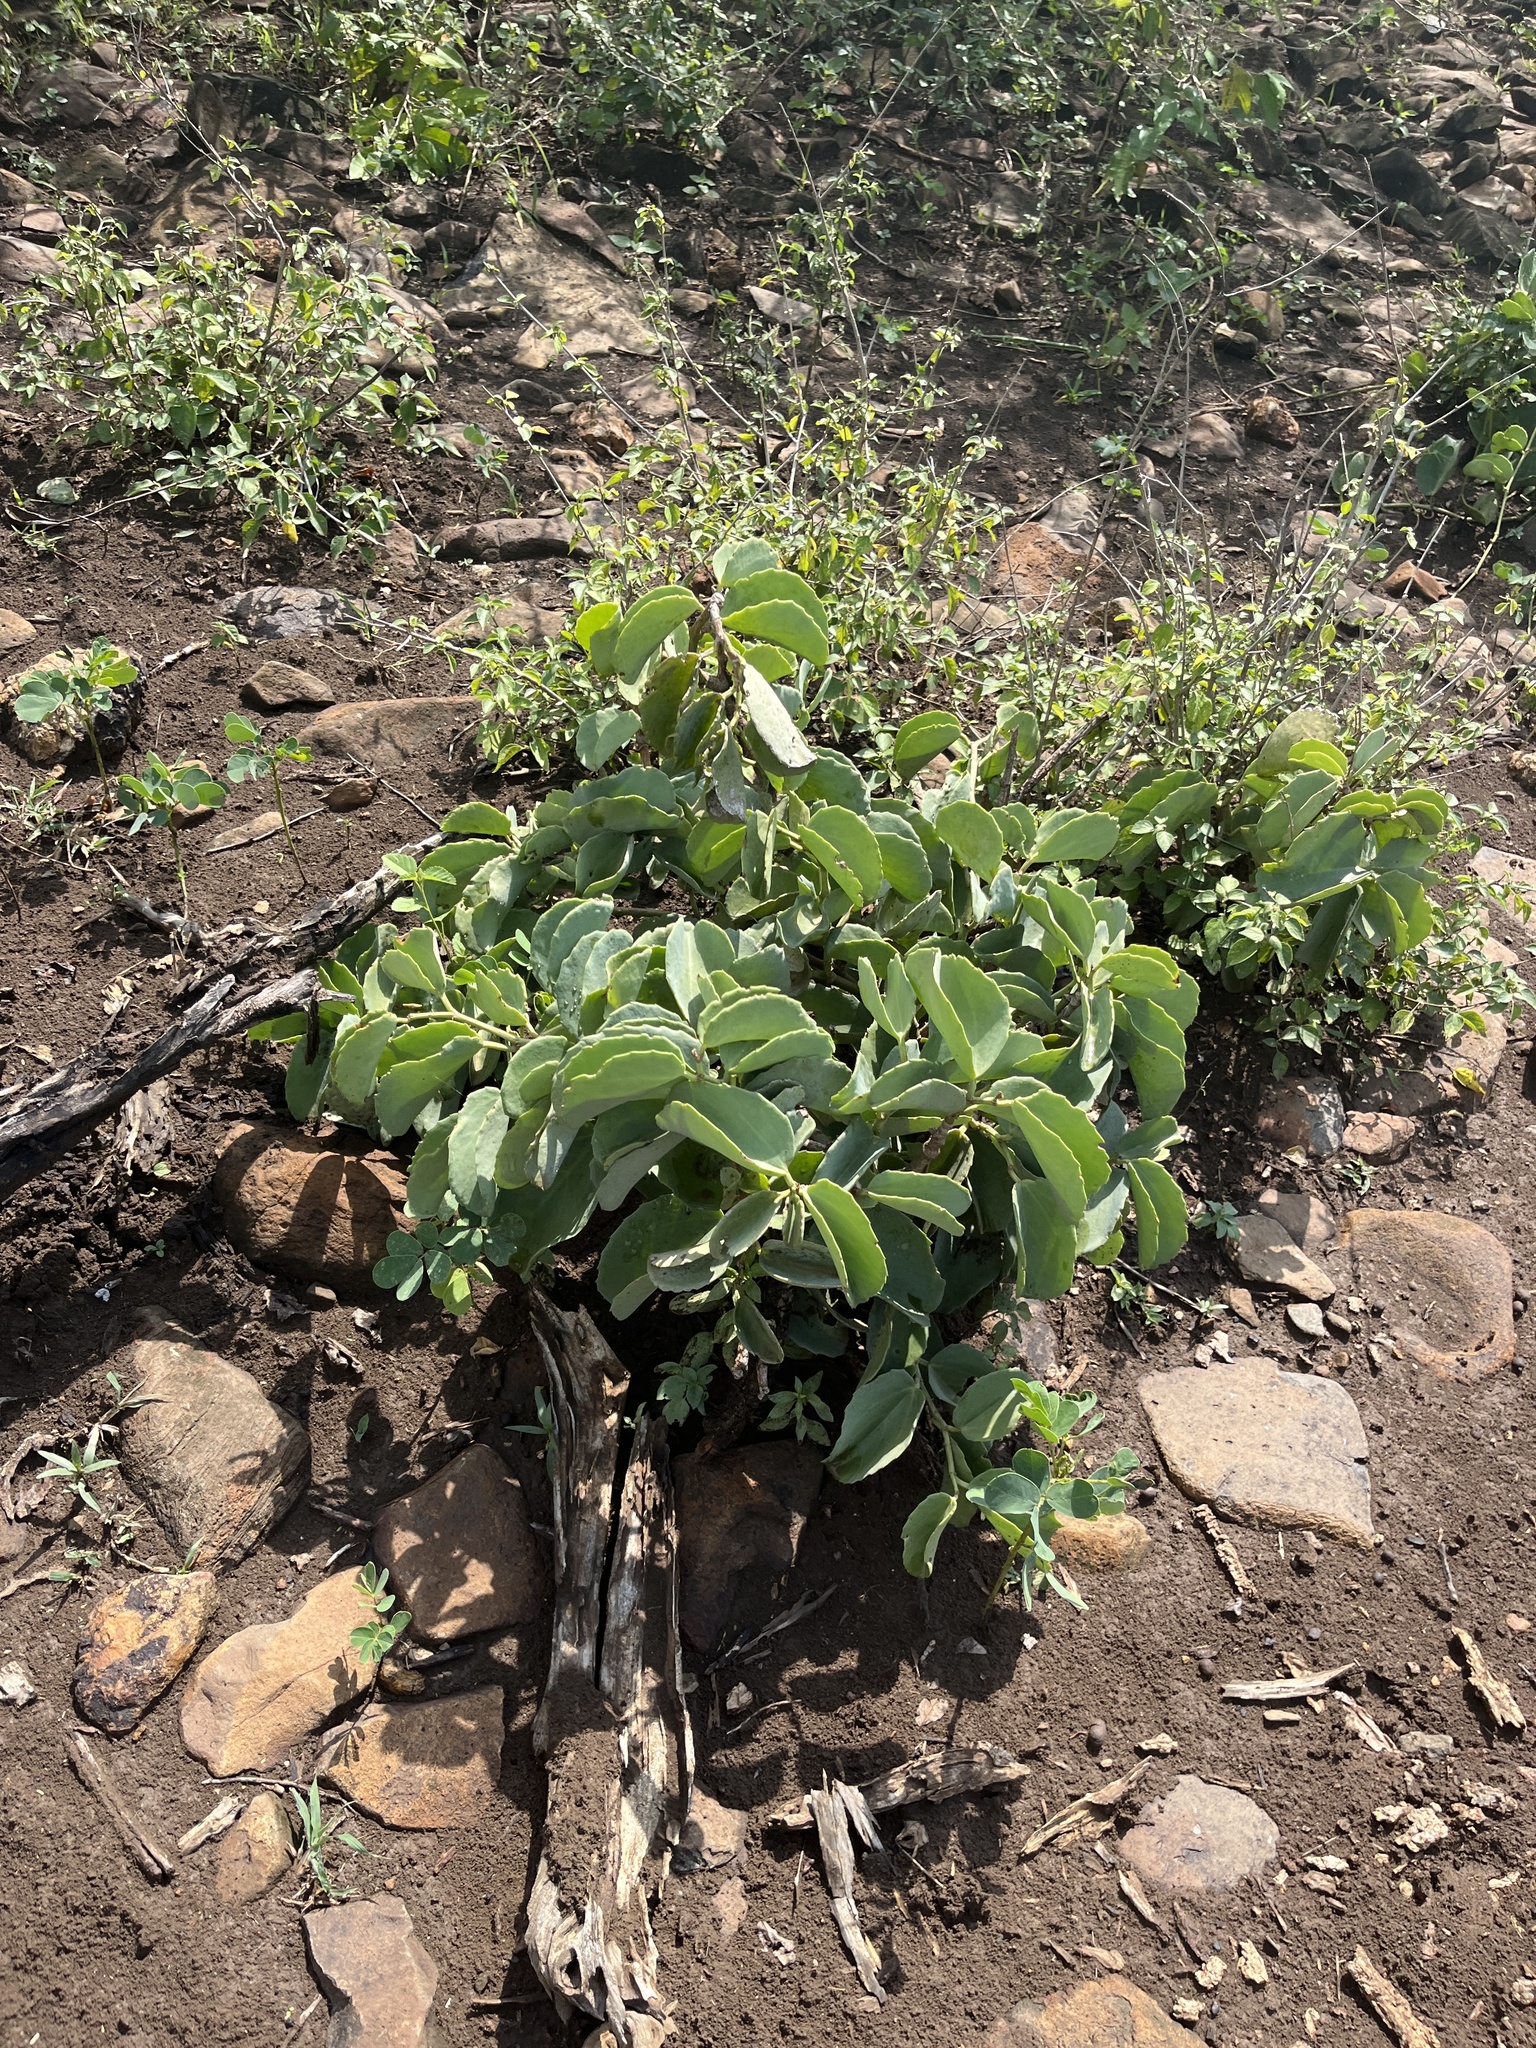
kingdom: Plantae
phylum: Tracheophyta
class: Magnoliopsida
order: Vitales
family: Vitaceae
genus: Cissus
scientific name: Cissus rotundifolia
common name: Arabian wax cissus
